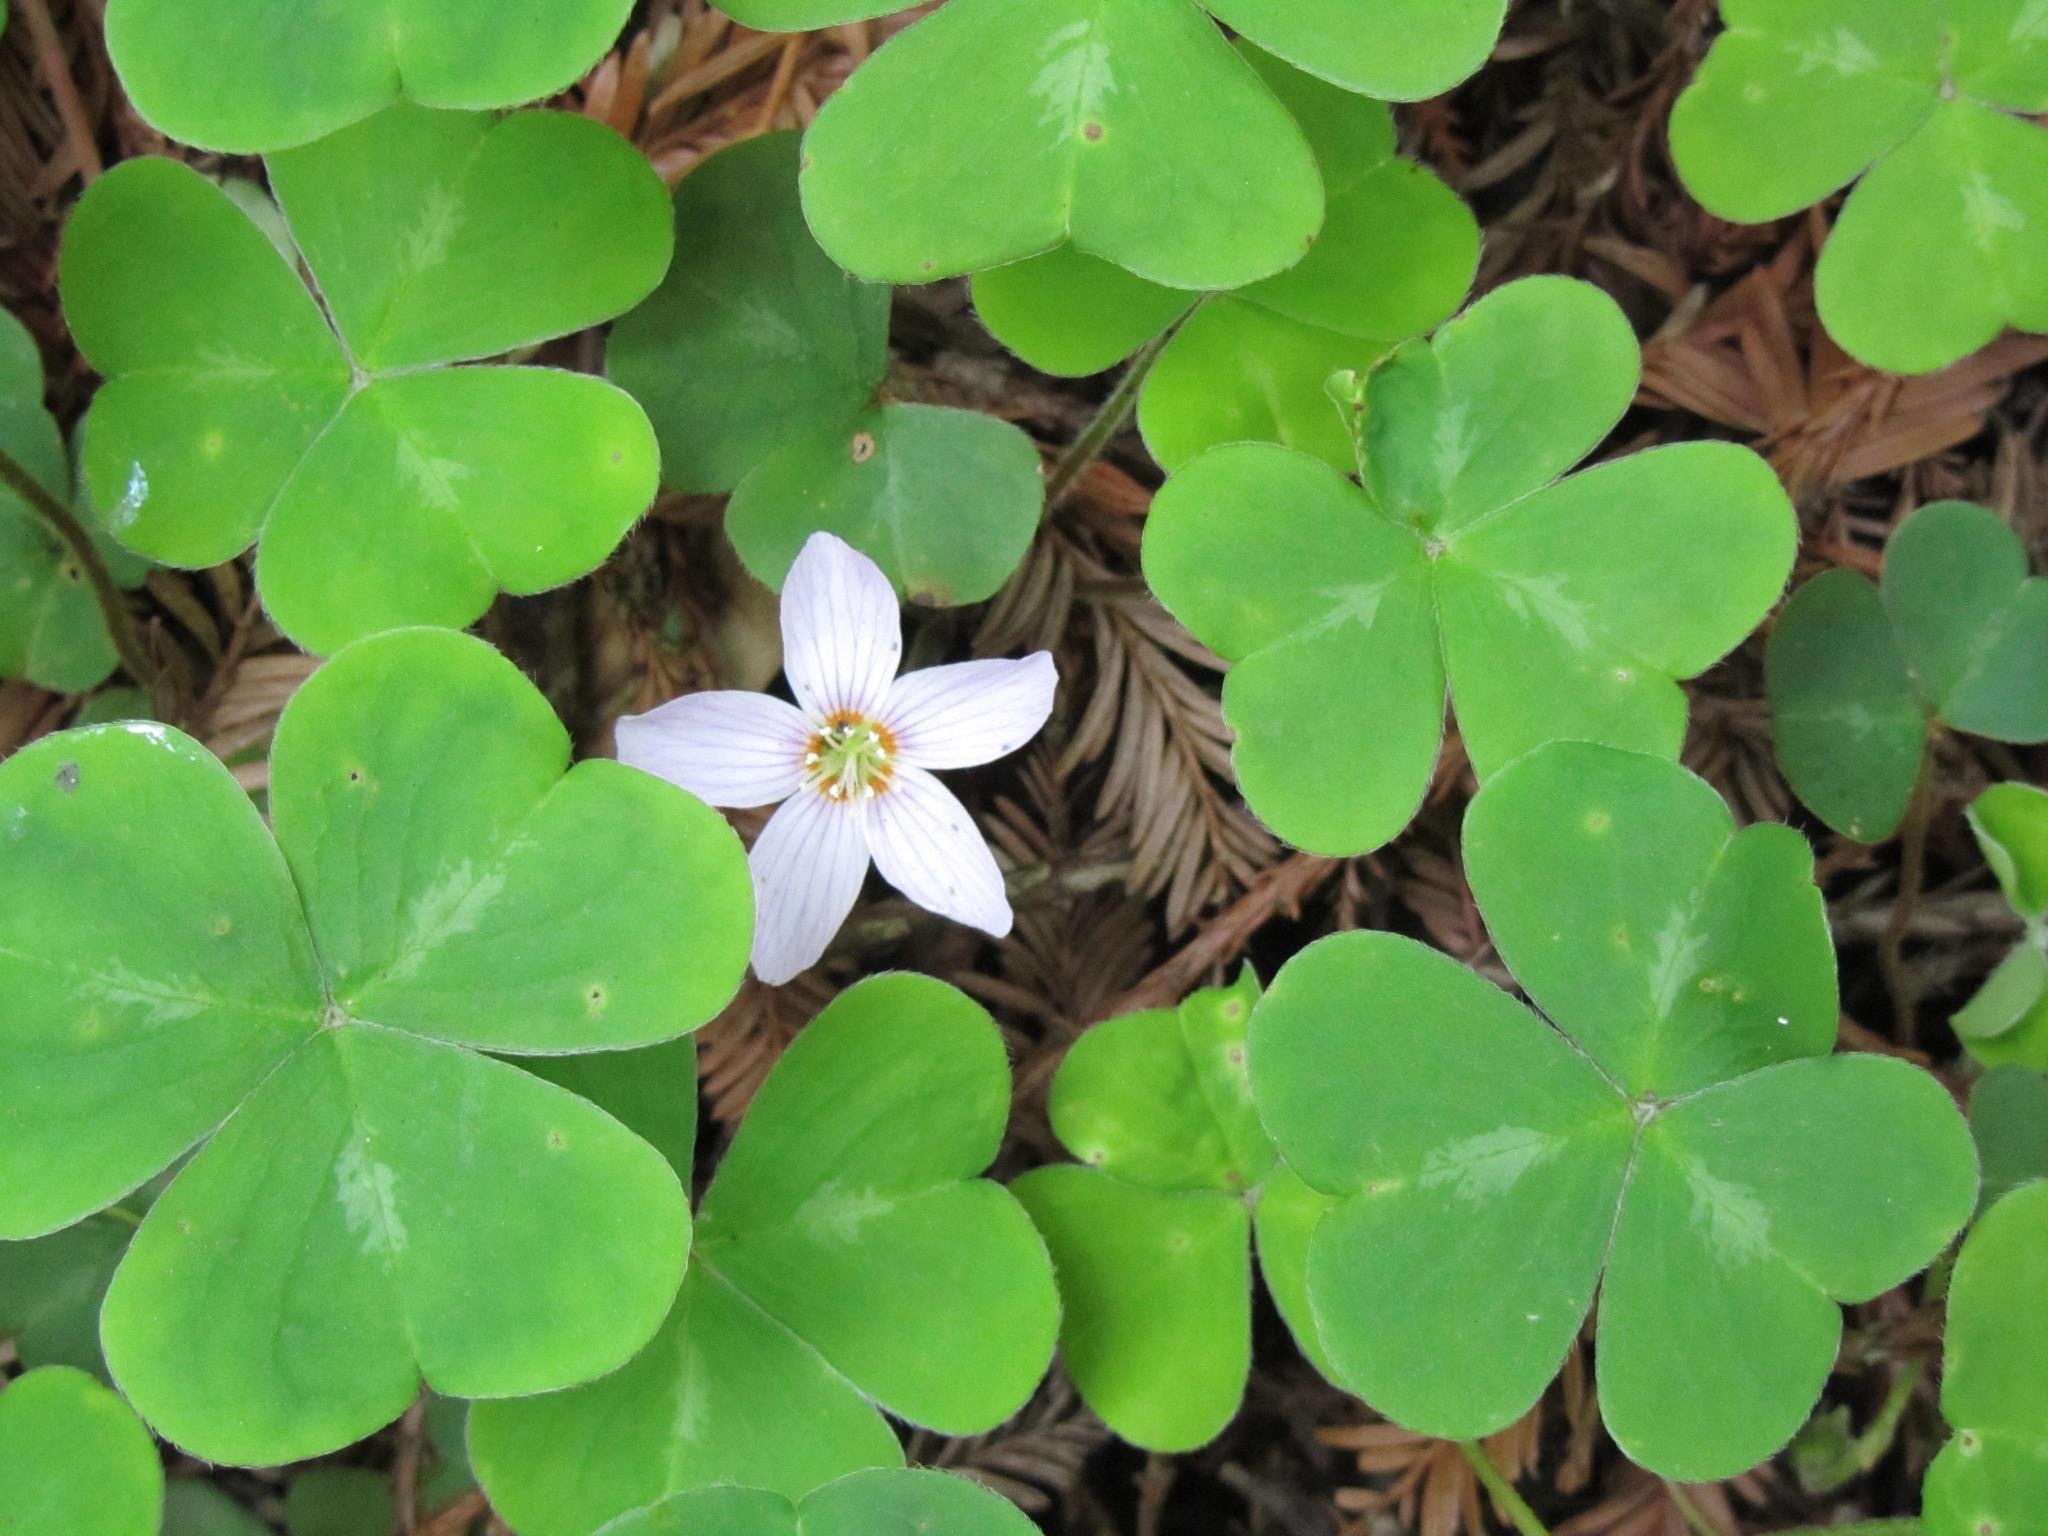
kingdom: Plantae
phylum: Tracheophyta
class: Magnoliopsida
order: Oxalidales
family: Oxalidaceae
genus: Oxalis
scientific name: Oxalis oregana
